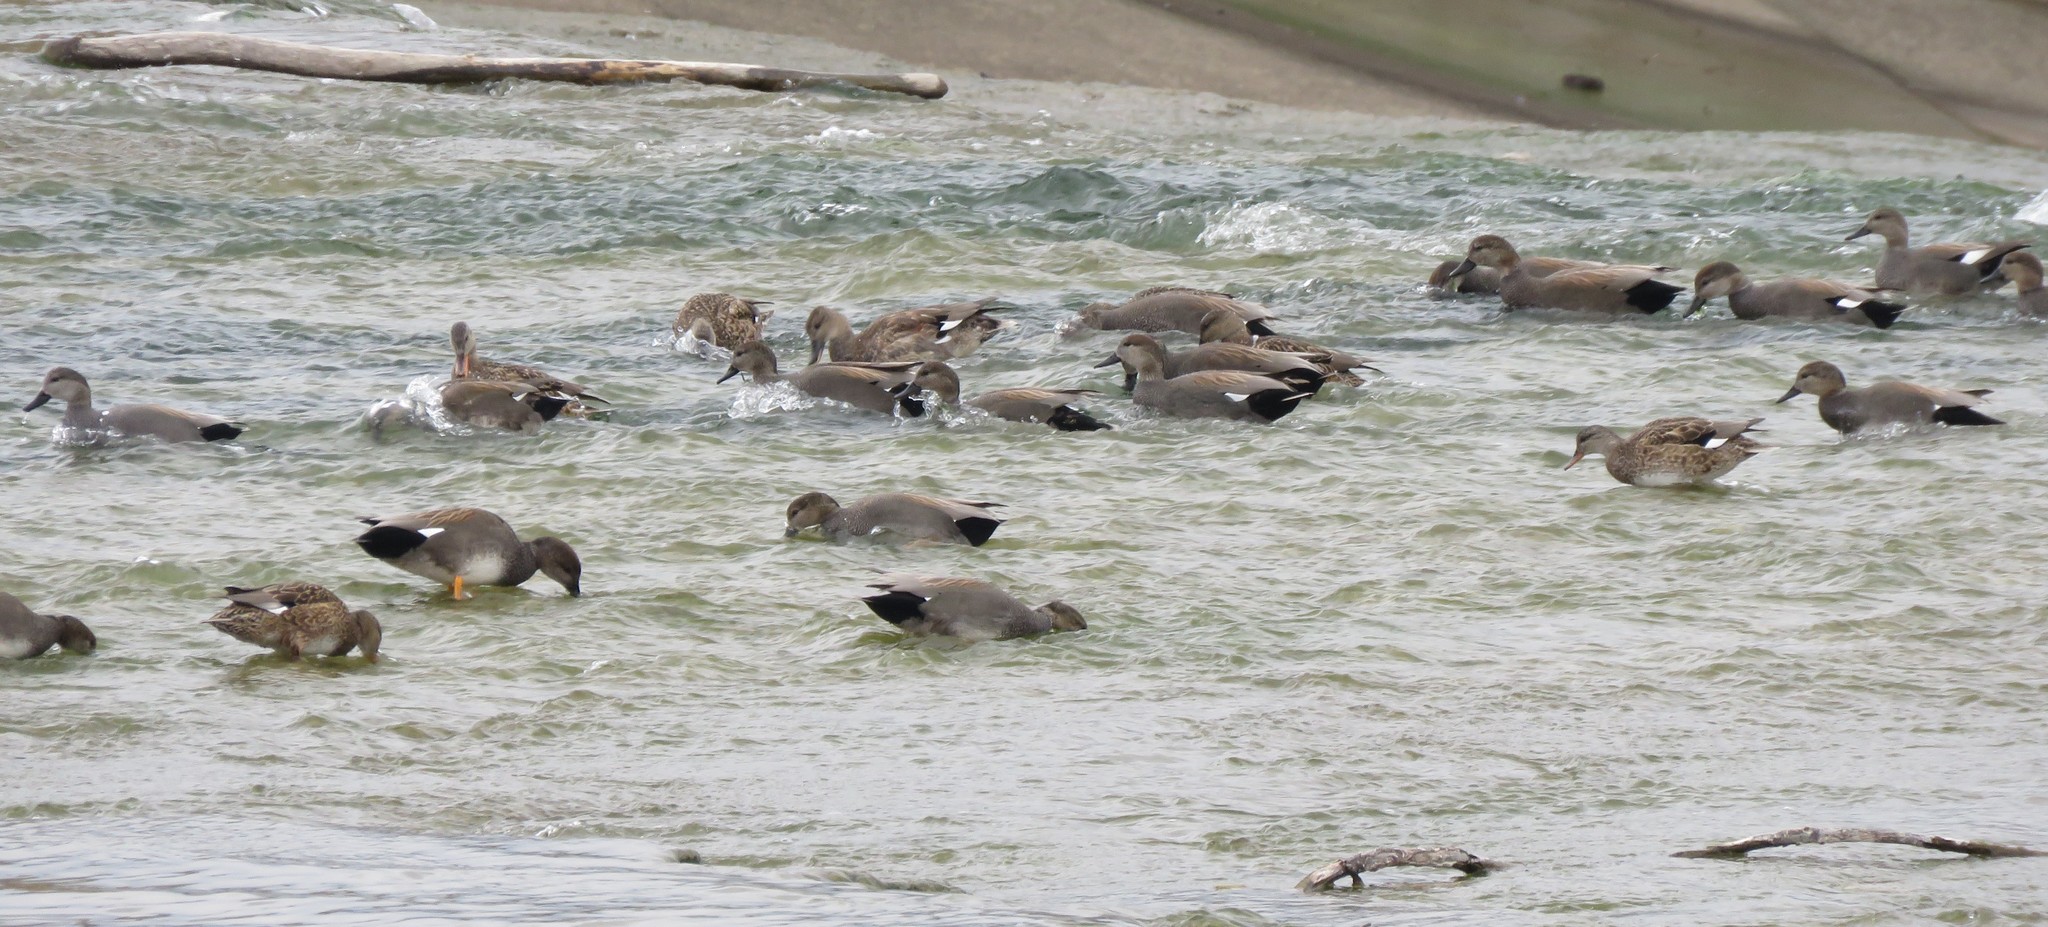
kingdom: Animalia
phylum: Chordata
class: Aves
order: Anseriformes
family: Anatidae
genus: Mareca
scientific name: Mareca strepera
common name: Gadwall
